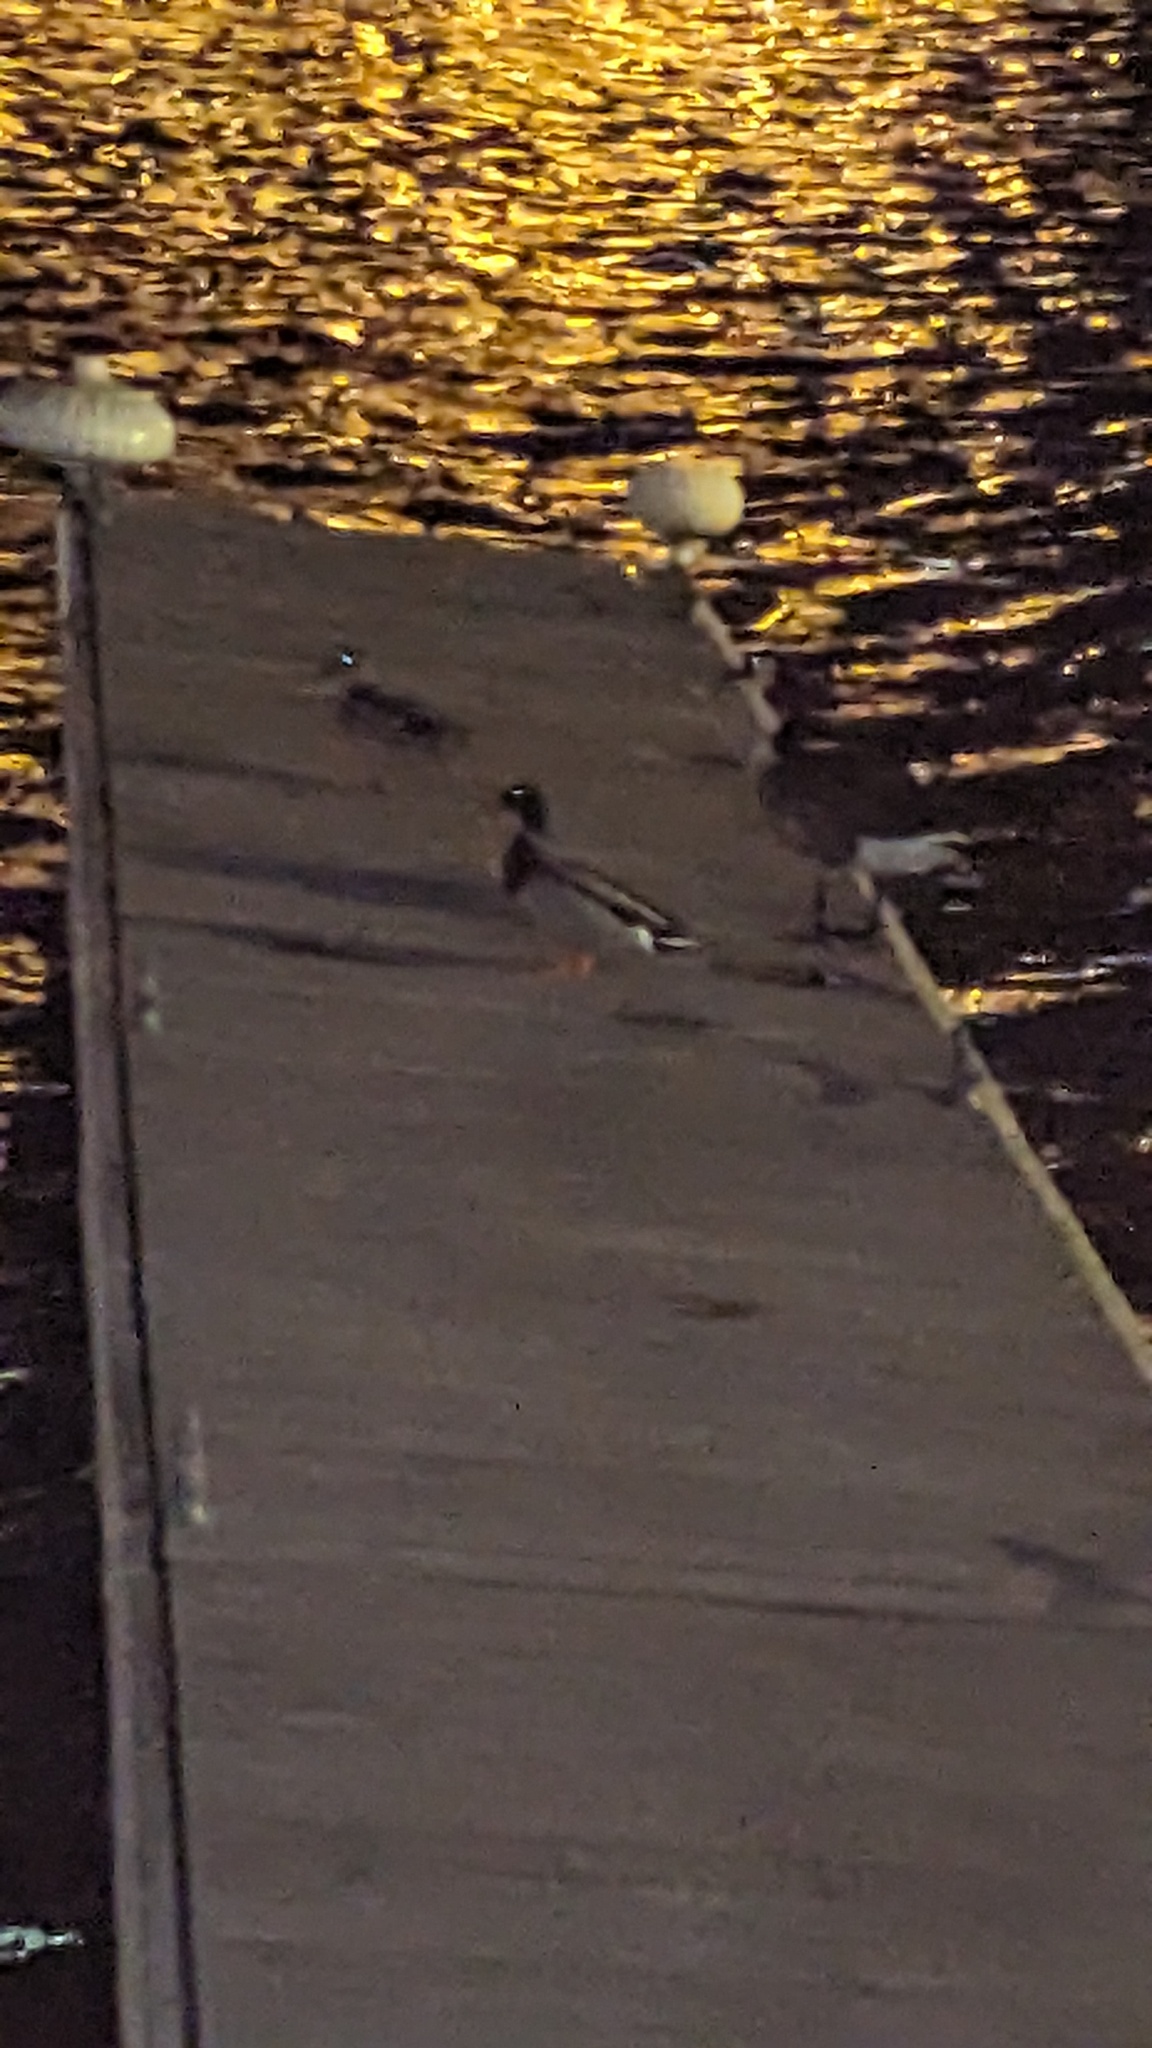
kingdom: Animalia
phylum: Chordata
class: Aves
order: Anseriformes
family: Anatidae
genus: Anas
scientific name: Anas platyrhynchos
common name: Mallard
